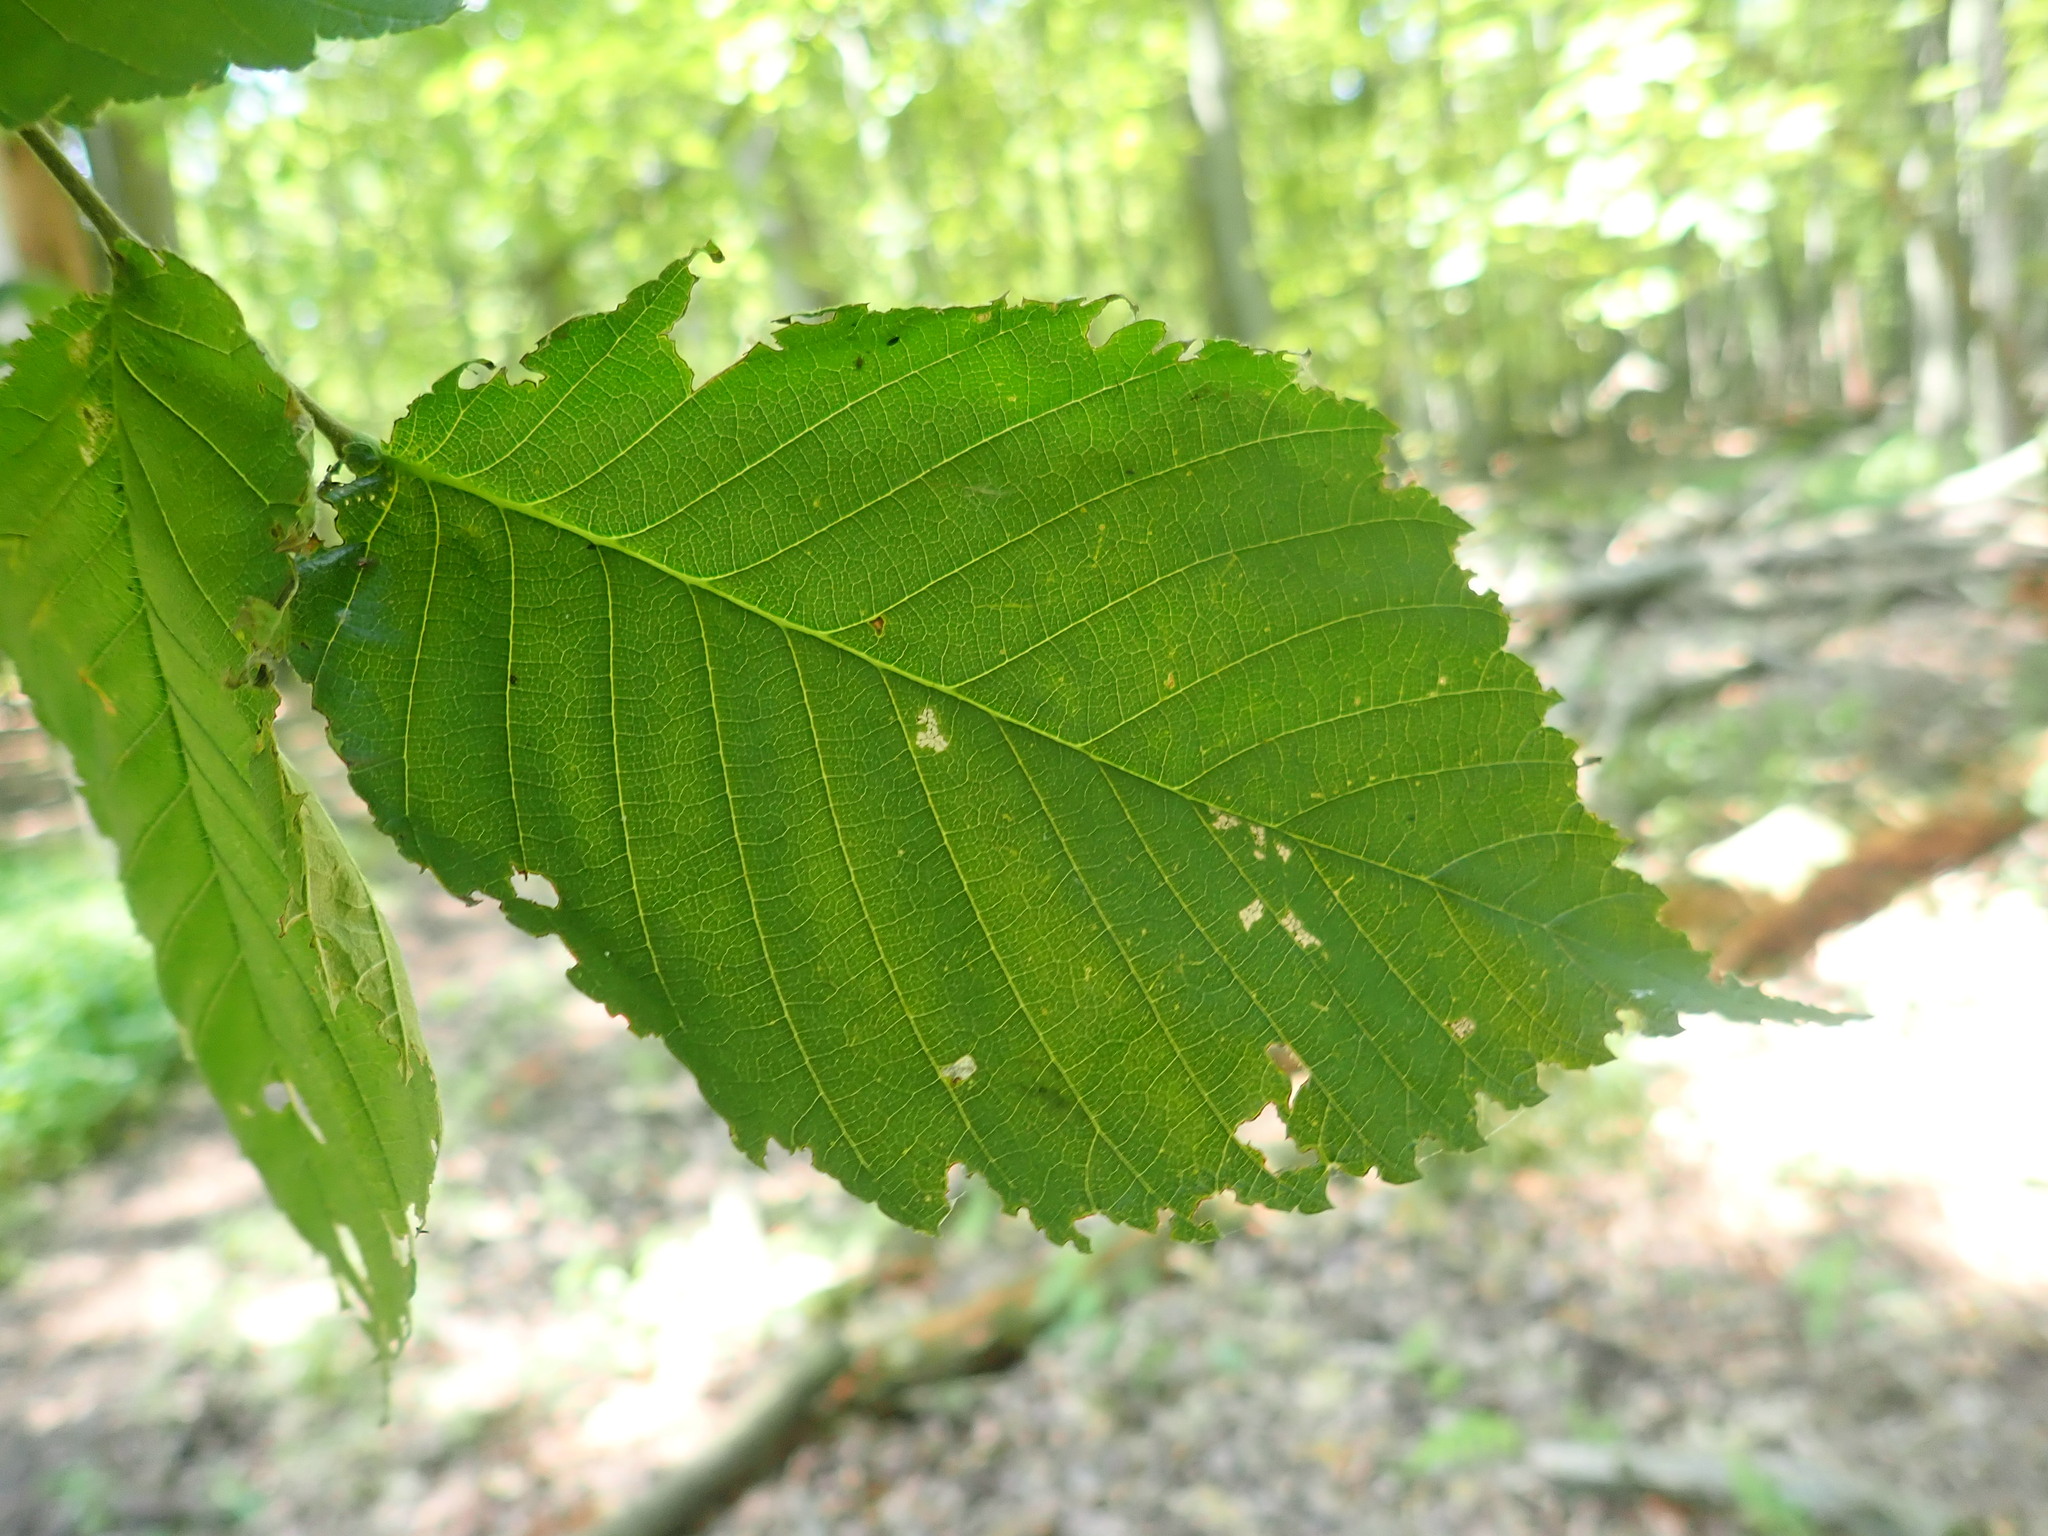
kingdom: Plantae
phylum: Tracheophyta
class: Magnoliopsida
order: Rosales
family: Ulmaceae
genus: Ulmus
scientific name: Ulmus americana
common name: American elm
